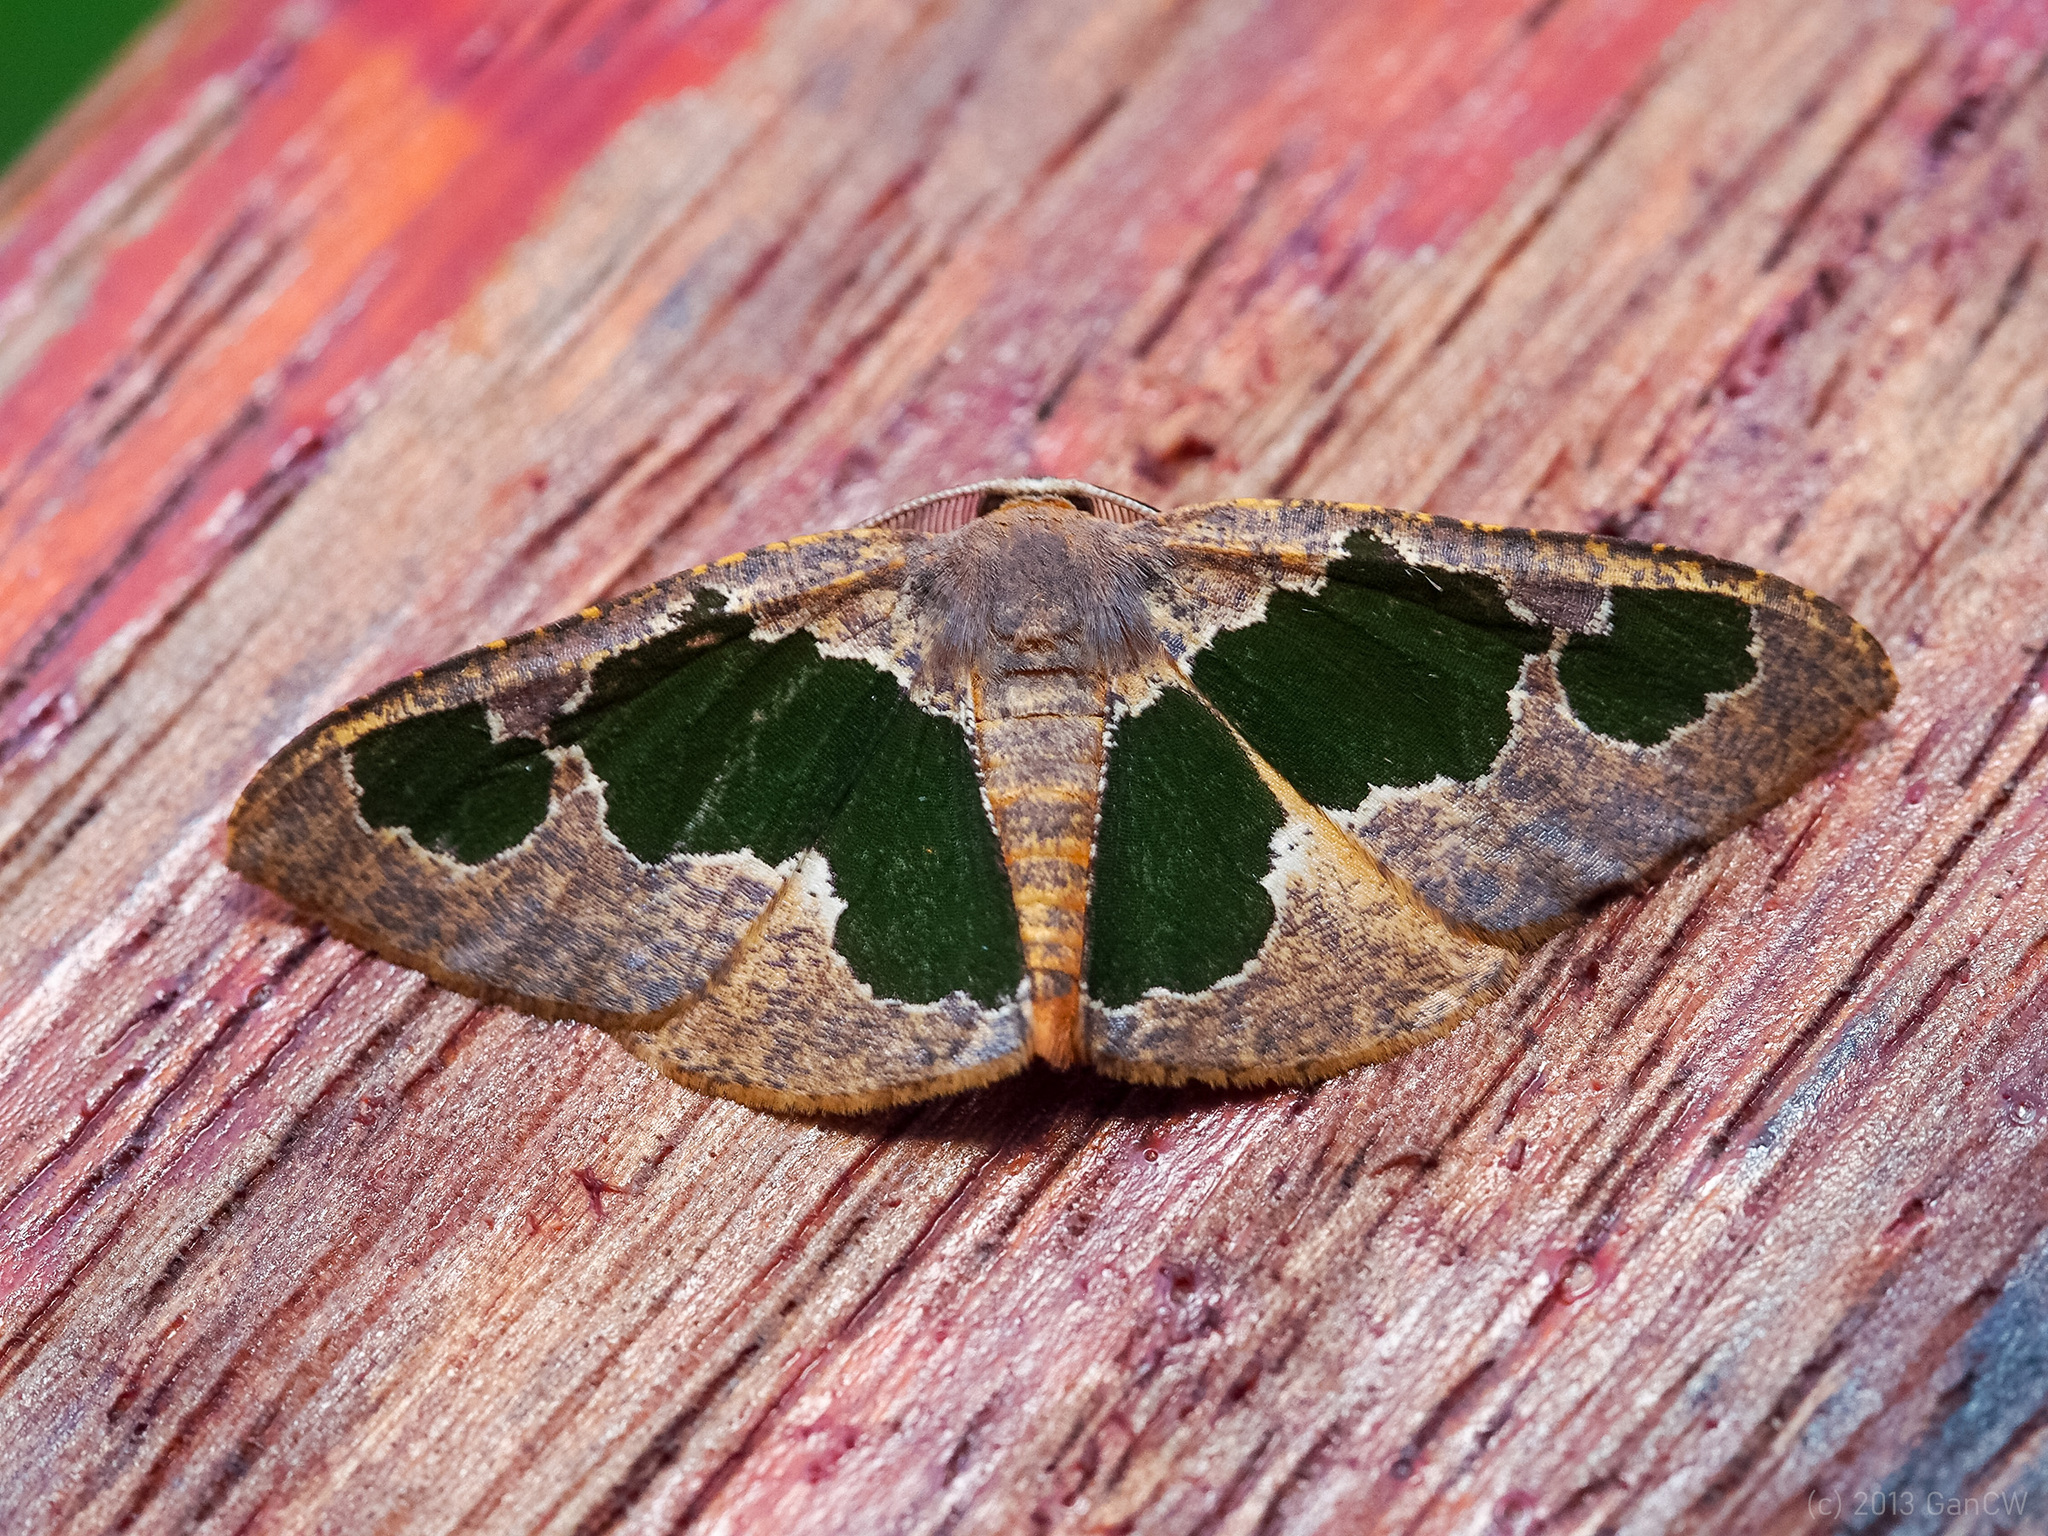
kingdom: Animalia
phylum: Arthropoda
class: Insecta
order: Lepidoptera
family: Geometridae
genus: Celenna
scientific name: Celenna festivaria
